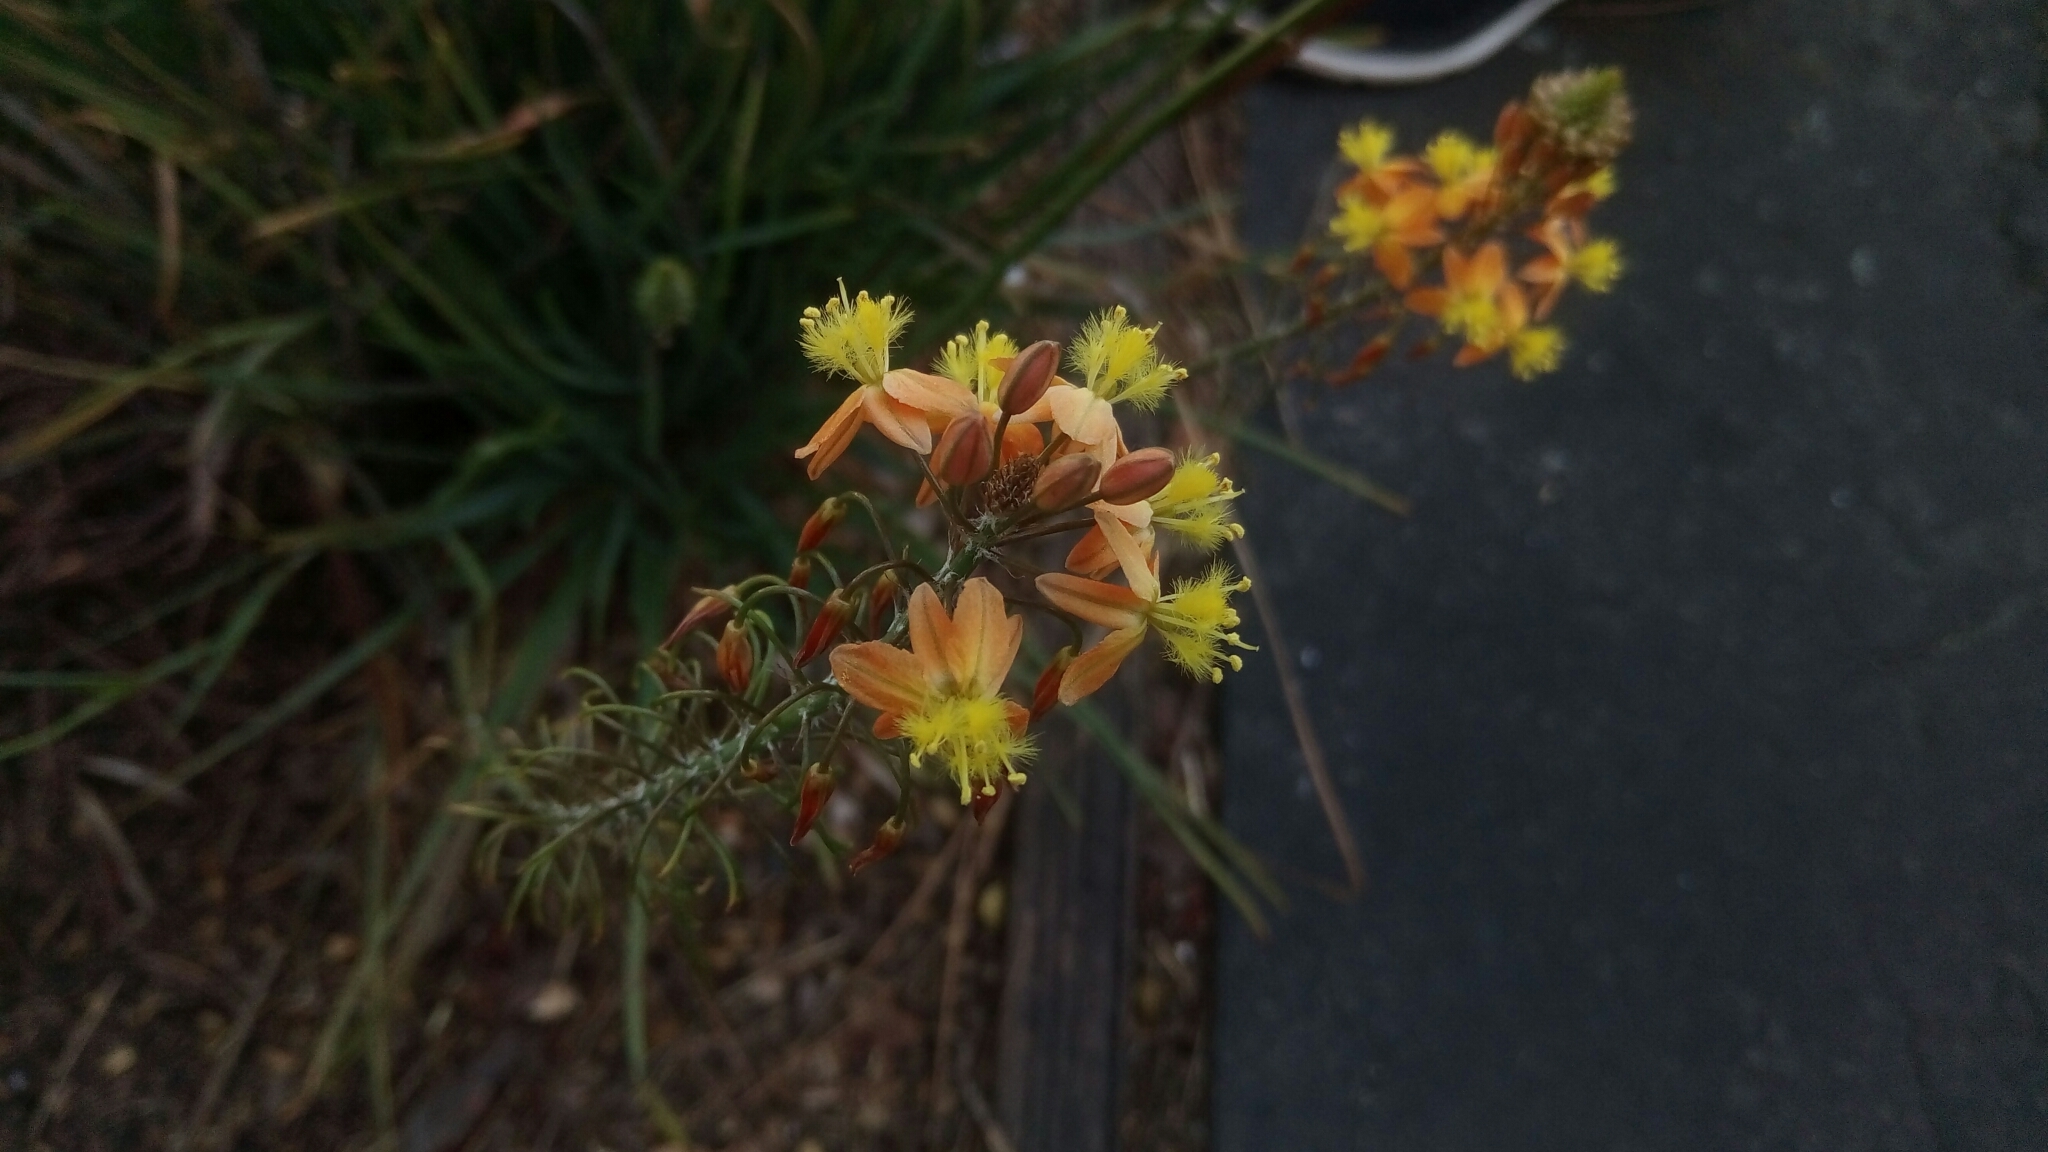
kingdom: Plantae
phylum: Tracheophyta
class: Liliopsida
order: Asparagales
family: Asphodelaceae
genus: Bulbine
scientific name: Bulbine frutescens
